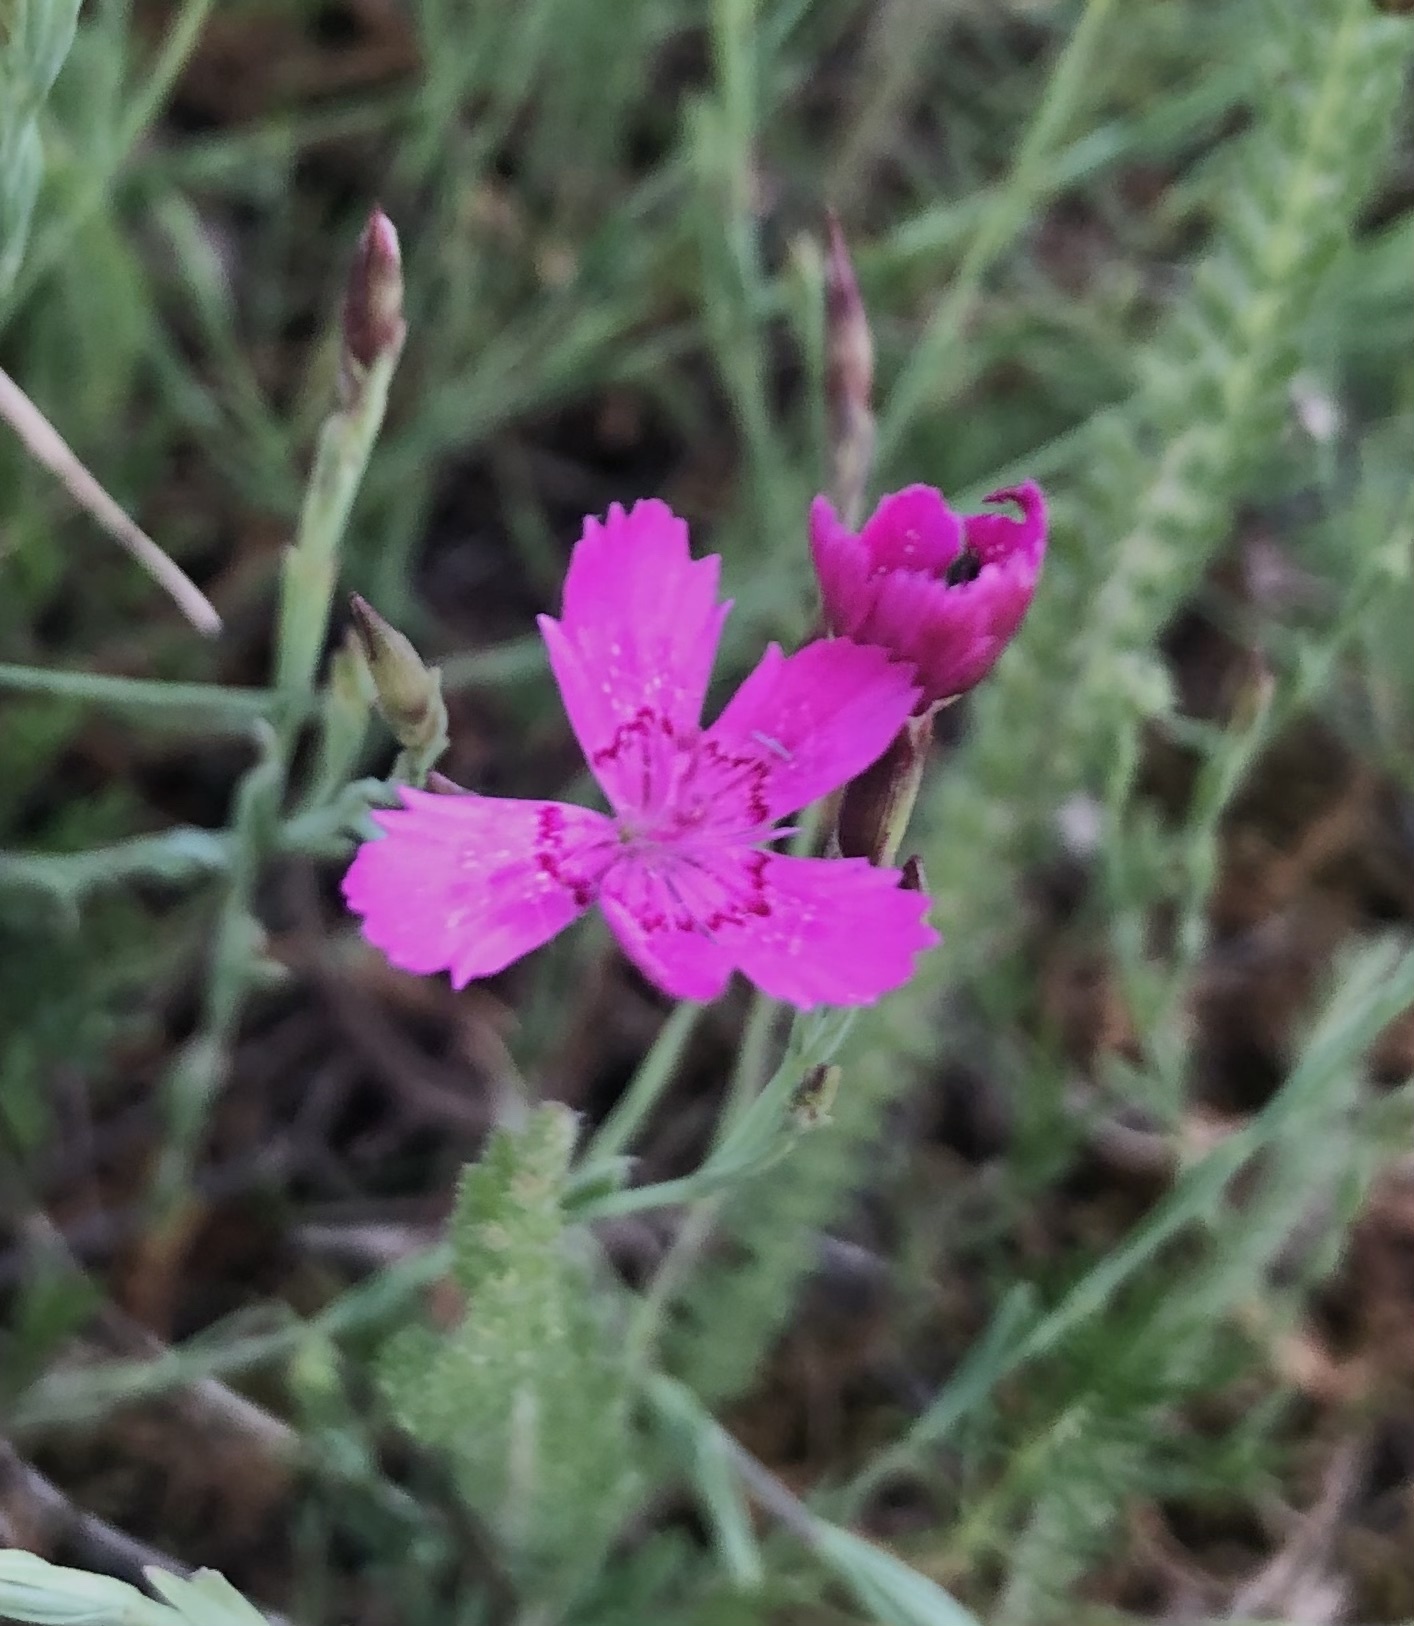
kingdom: Plantae
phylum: Tracheophyta
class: Magnoliopsida
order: Caryophyllales
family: Caryophyllaceae
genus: Dianthus
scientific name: Dianthus deltoides
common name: Maiden pink
